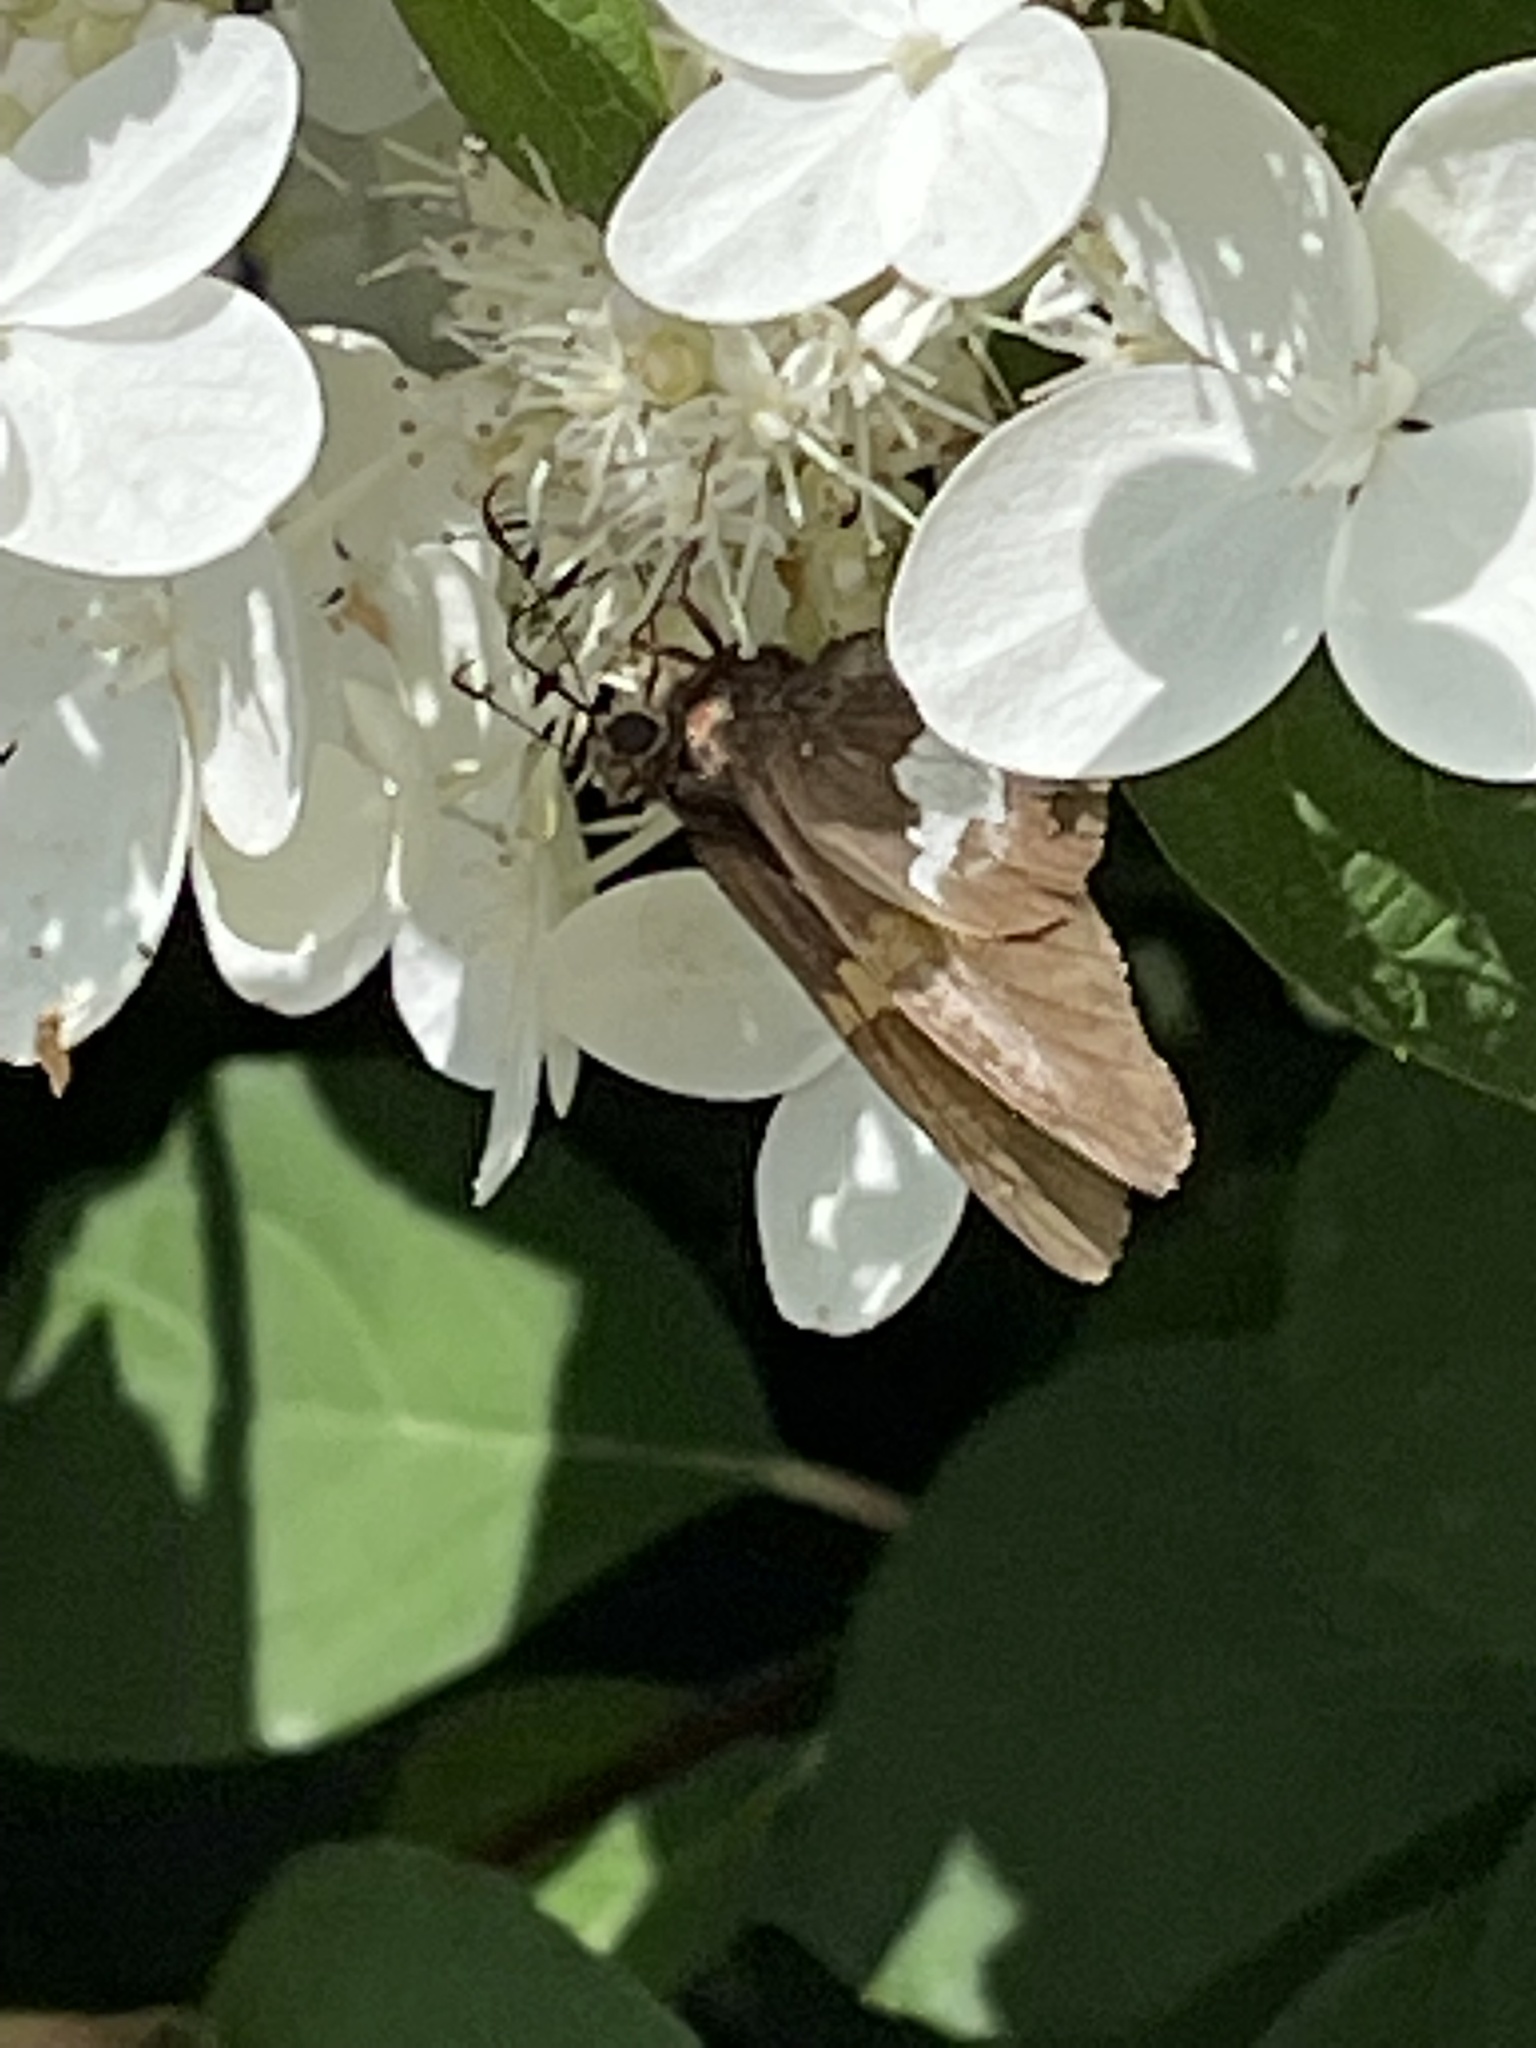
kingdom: Animalia
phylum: Arthropoda
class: Insecta
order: Lepidoptera
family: Hesperiidae
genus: Epargyreus
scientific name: Epargyreus clarus
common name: Silver-spotted skipper
